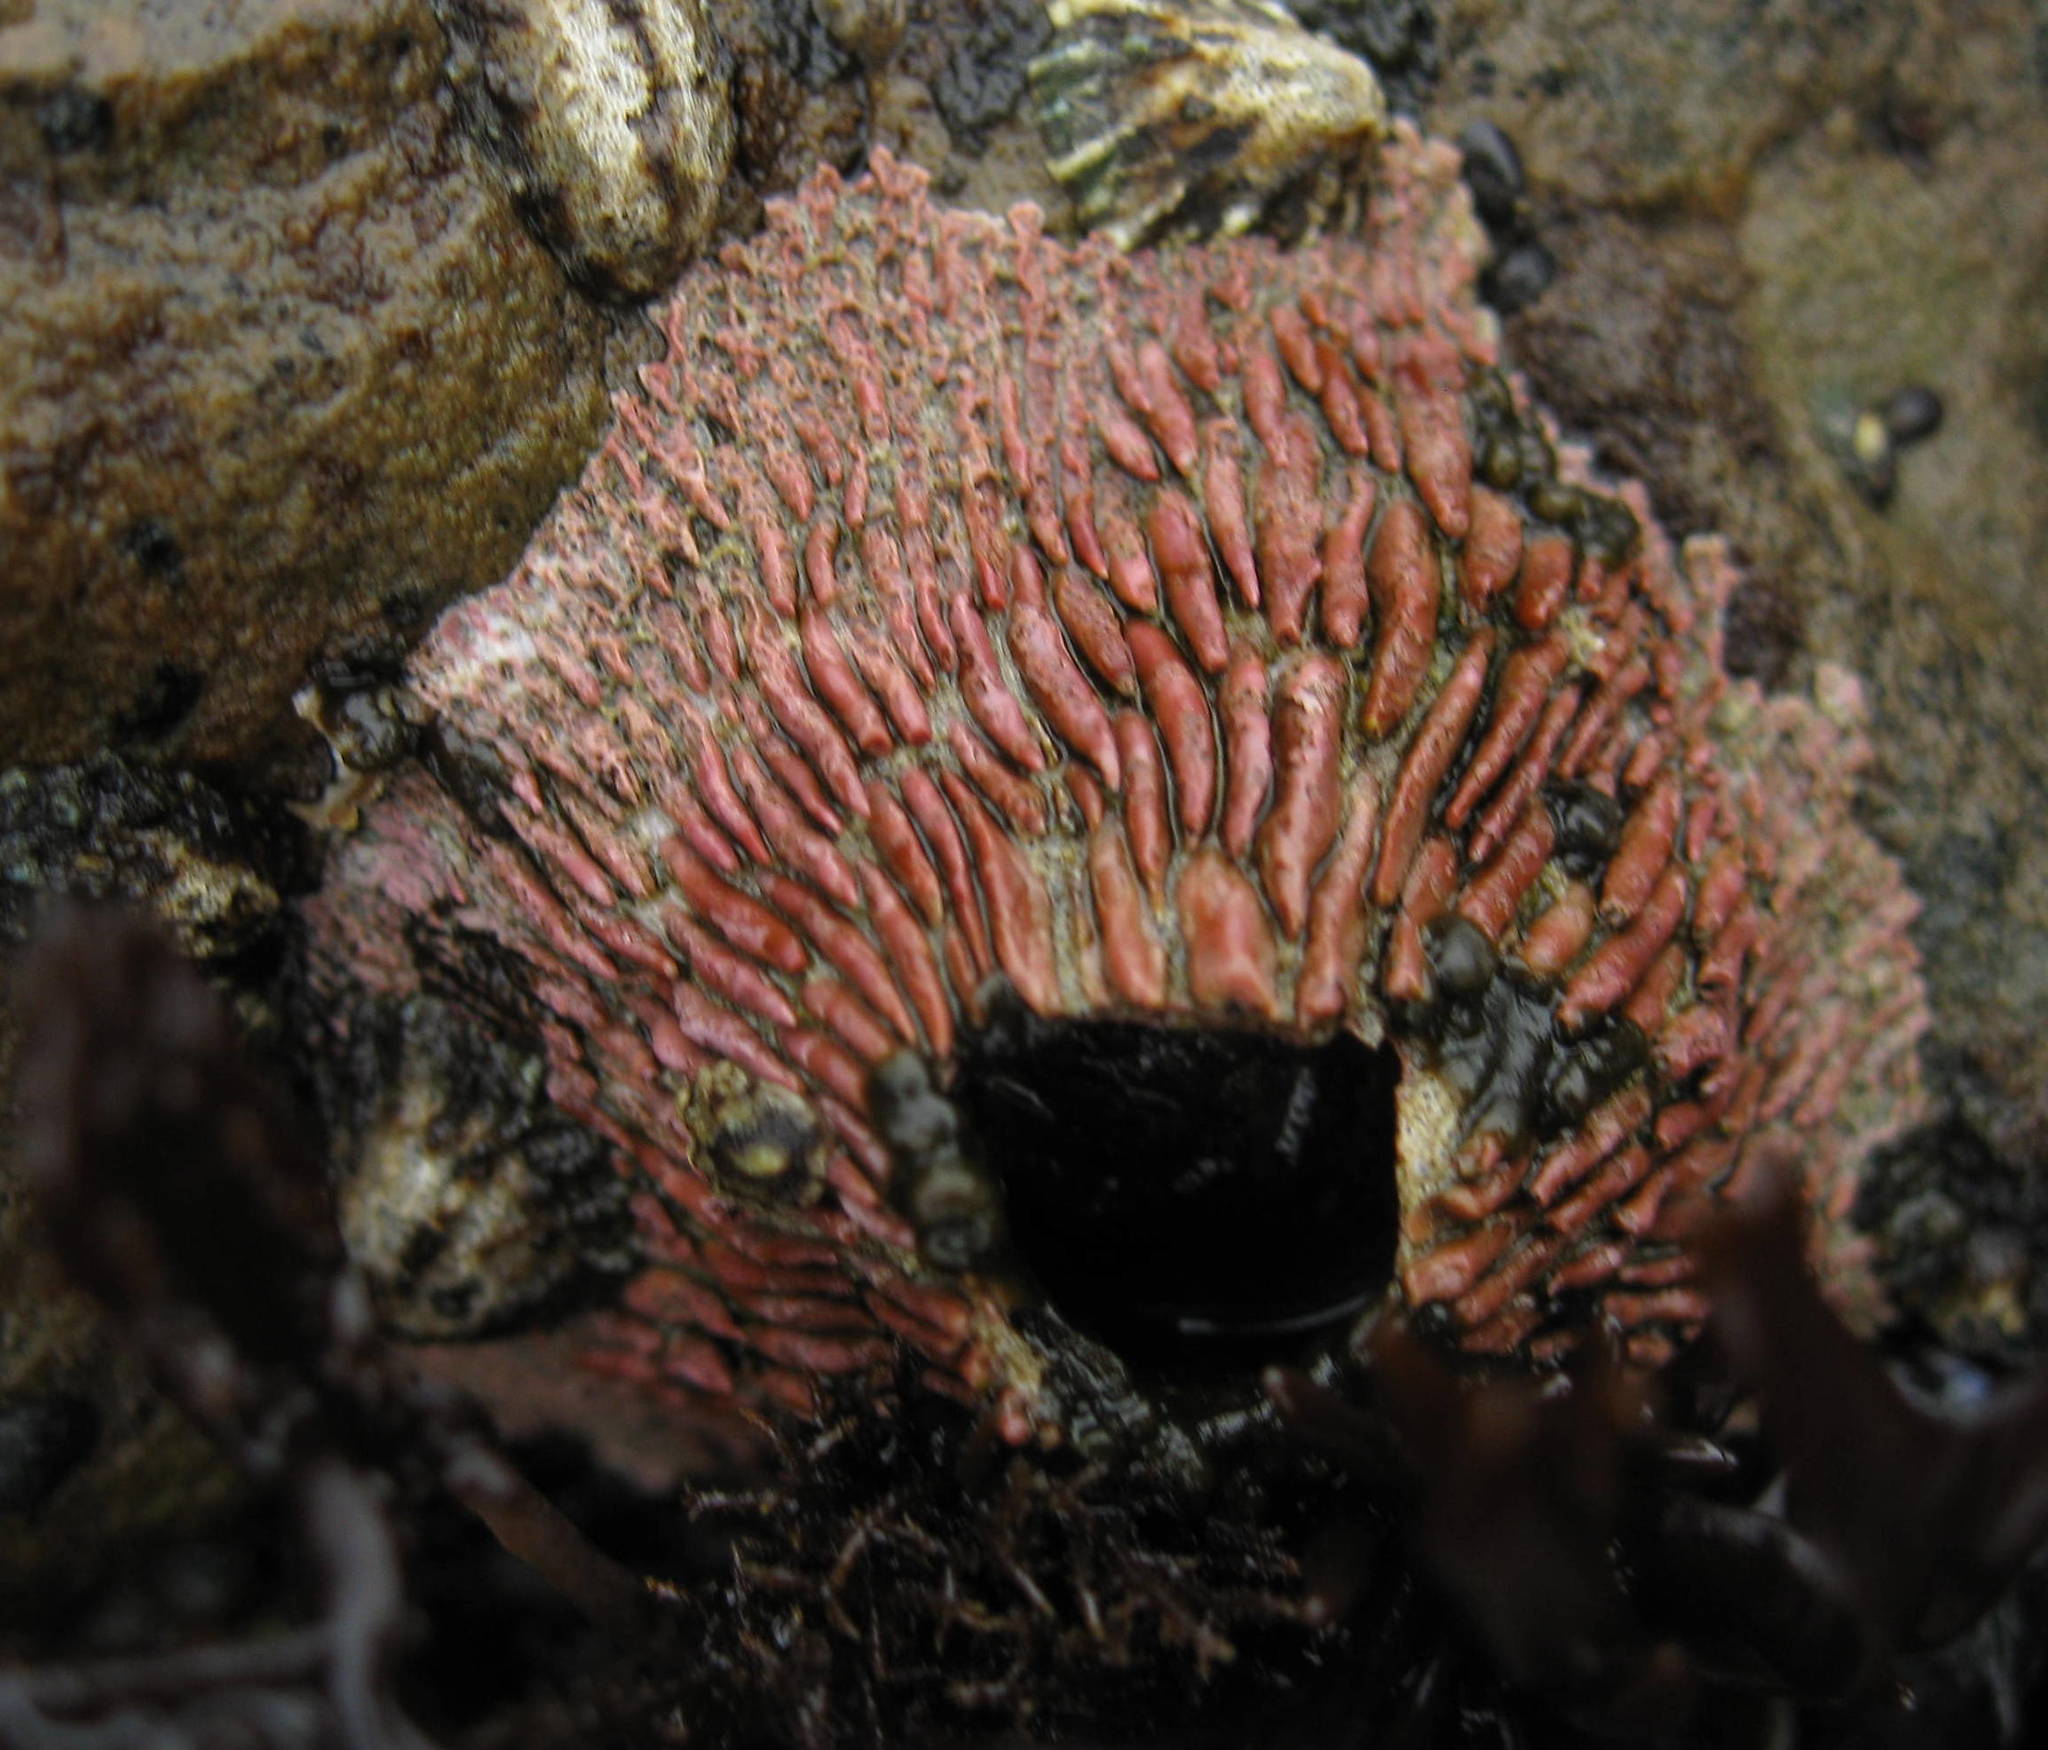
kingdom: Animalia
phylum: Arthropoda
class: Maxillopoda
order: Sessilia
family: Tetraclitidae
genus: Tetraclita
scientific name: Tetraclita rubescens
